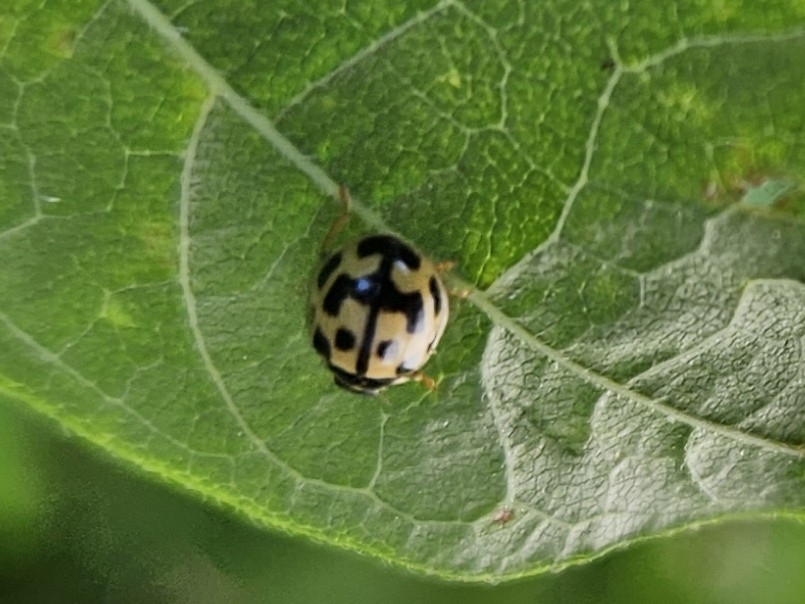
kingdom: Animalia
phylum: Arthropoda
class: Insecta
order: Coleoptera
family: Coccinellidae
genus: Propylaea
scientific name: Propylaea quatuordecimpunctata
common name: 14-spotted ladybird beetle
